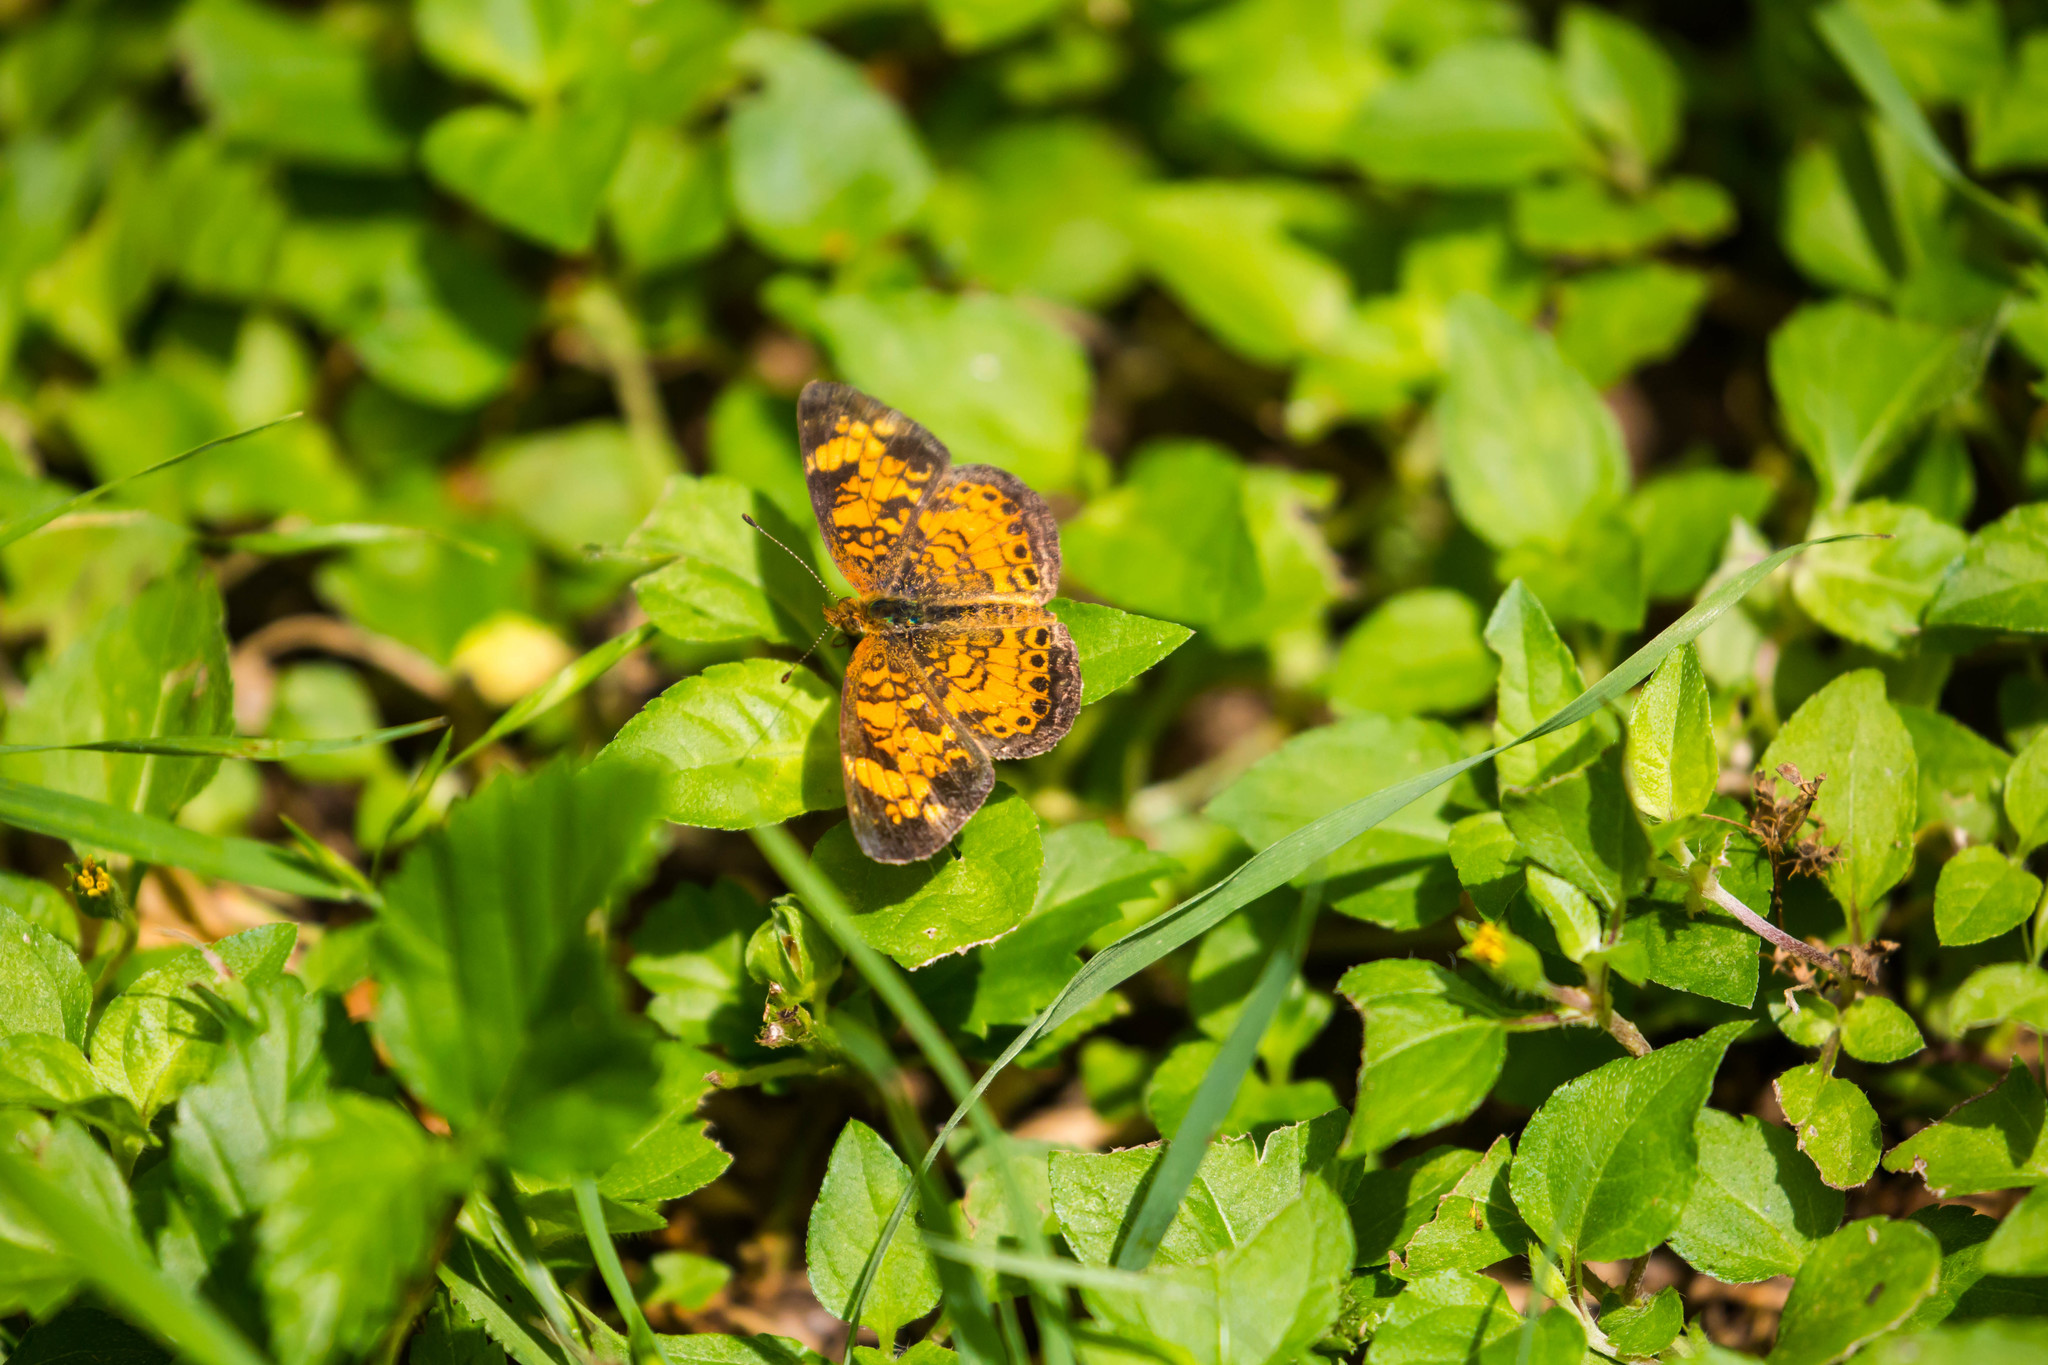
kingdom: Animalia
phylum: Arthropoda
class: Insecta
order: Lepidoptera
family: Nymphalidae
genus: Phyciodes
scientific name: Phyciodes tharos
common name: Pearl crescent
